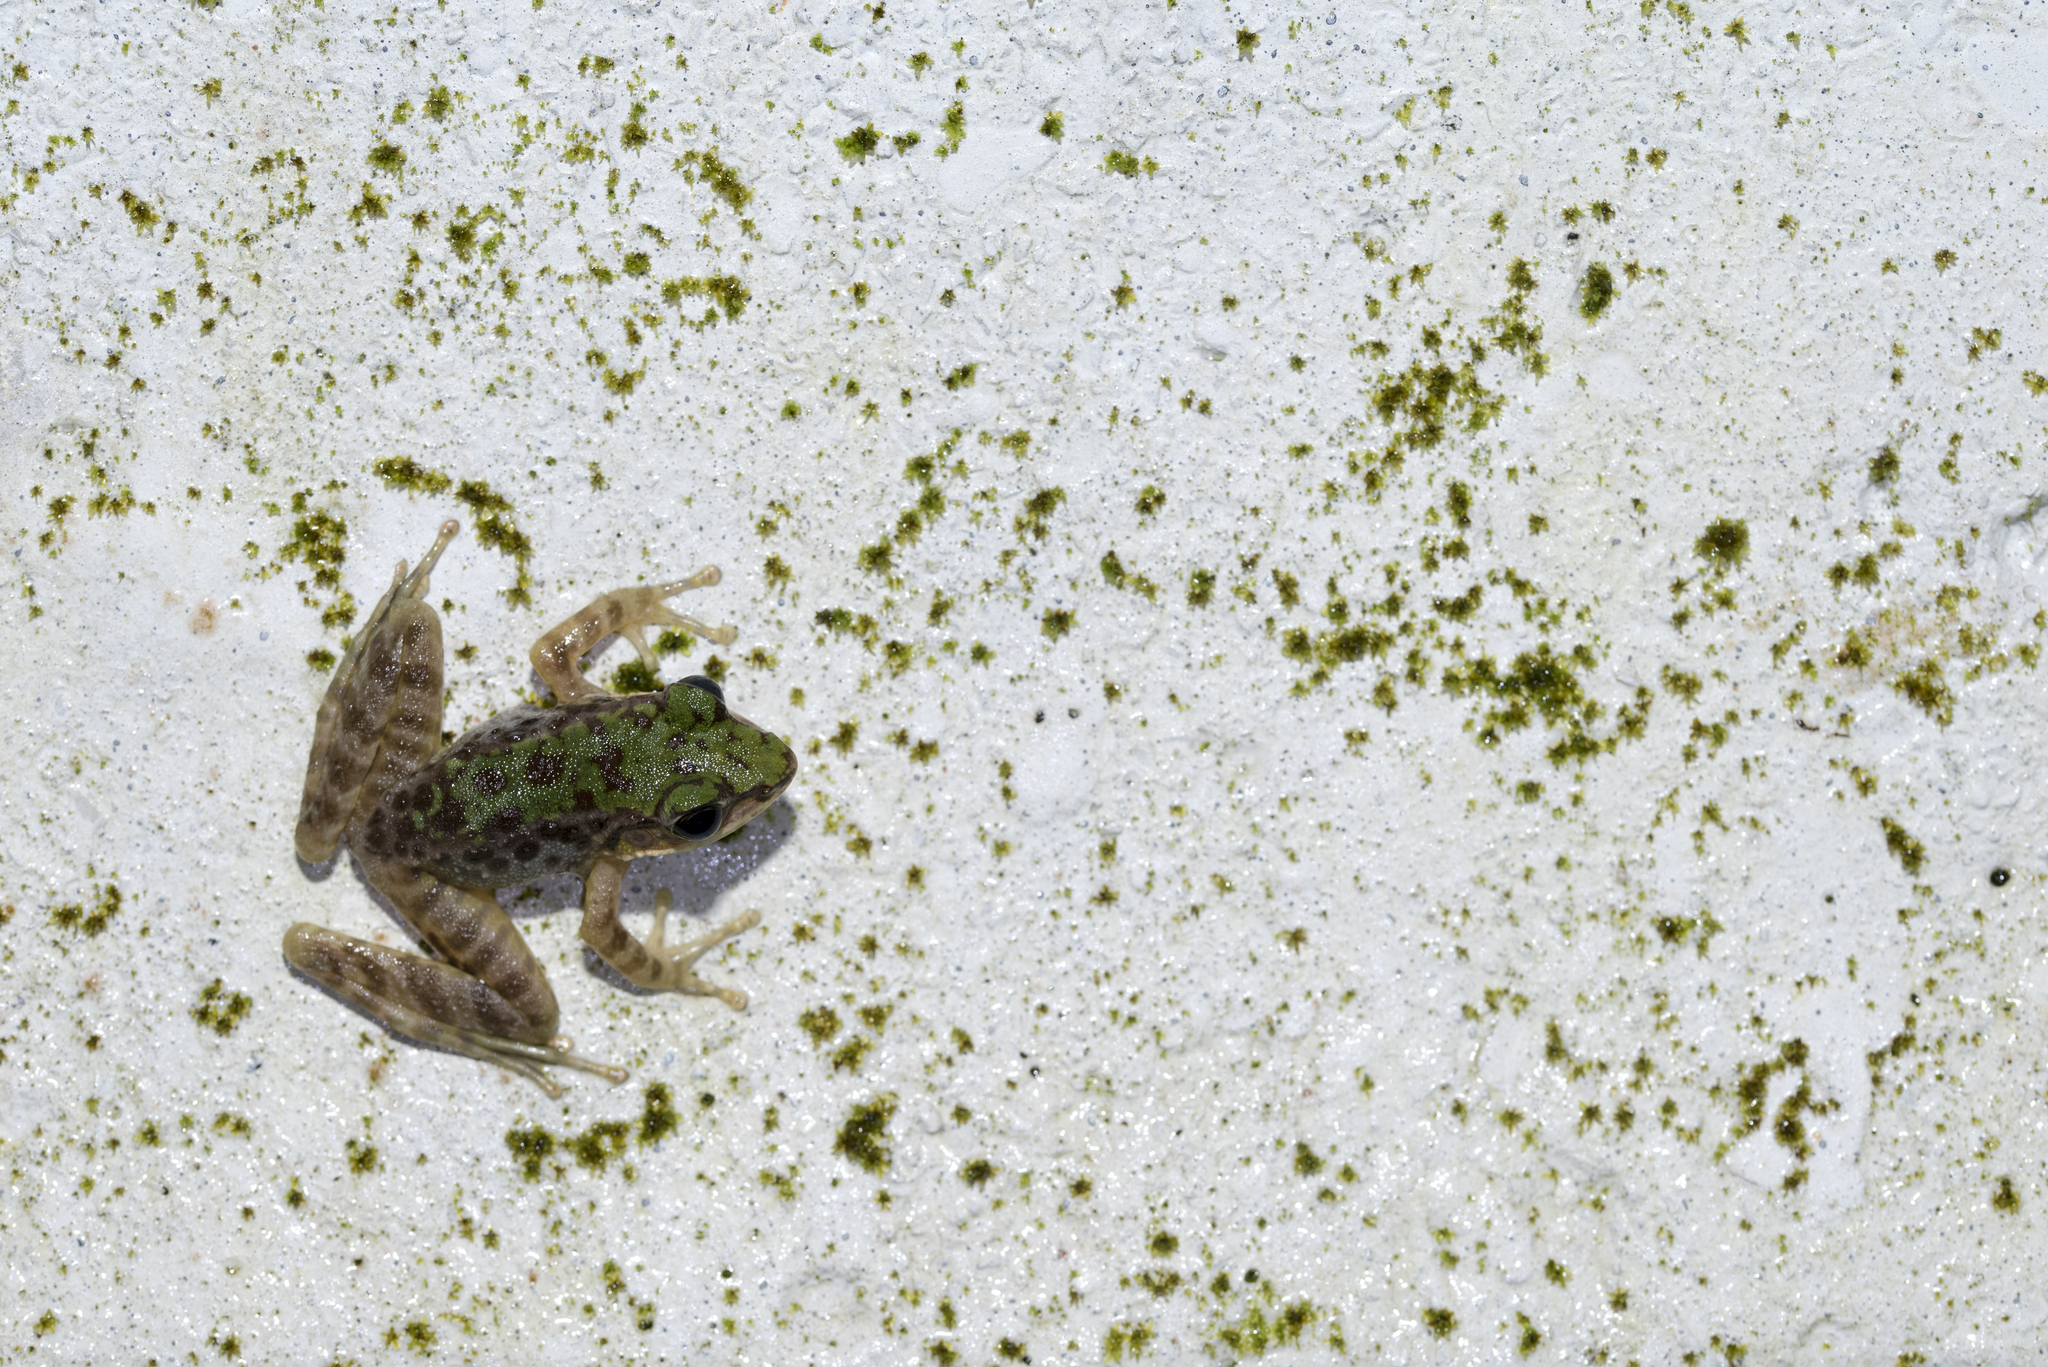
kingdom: Animalia
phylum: Chordata
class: Amphibia
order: Anura
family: Ranidae
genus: Odorrana
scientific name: Odorrana swinhoana
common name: Bangkimtsing frog
